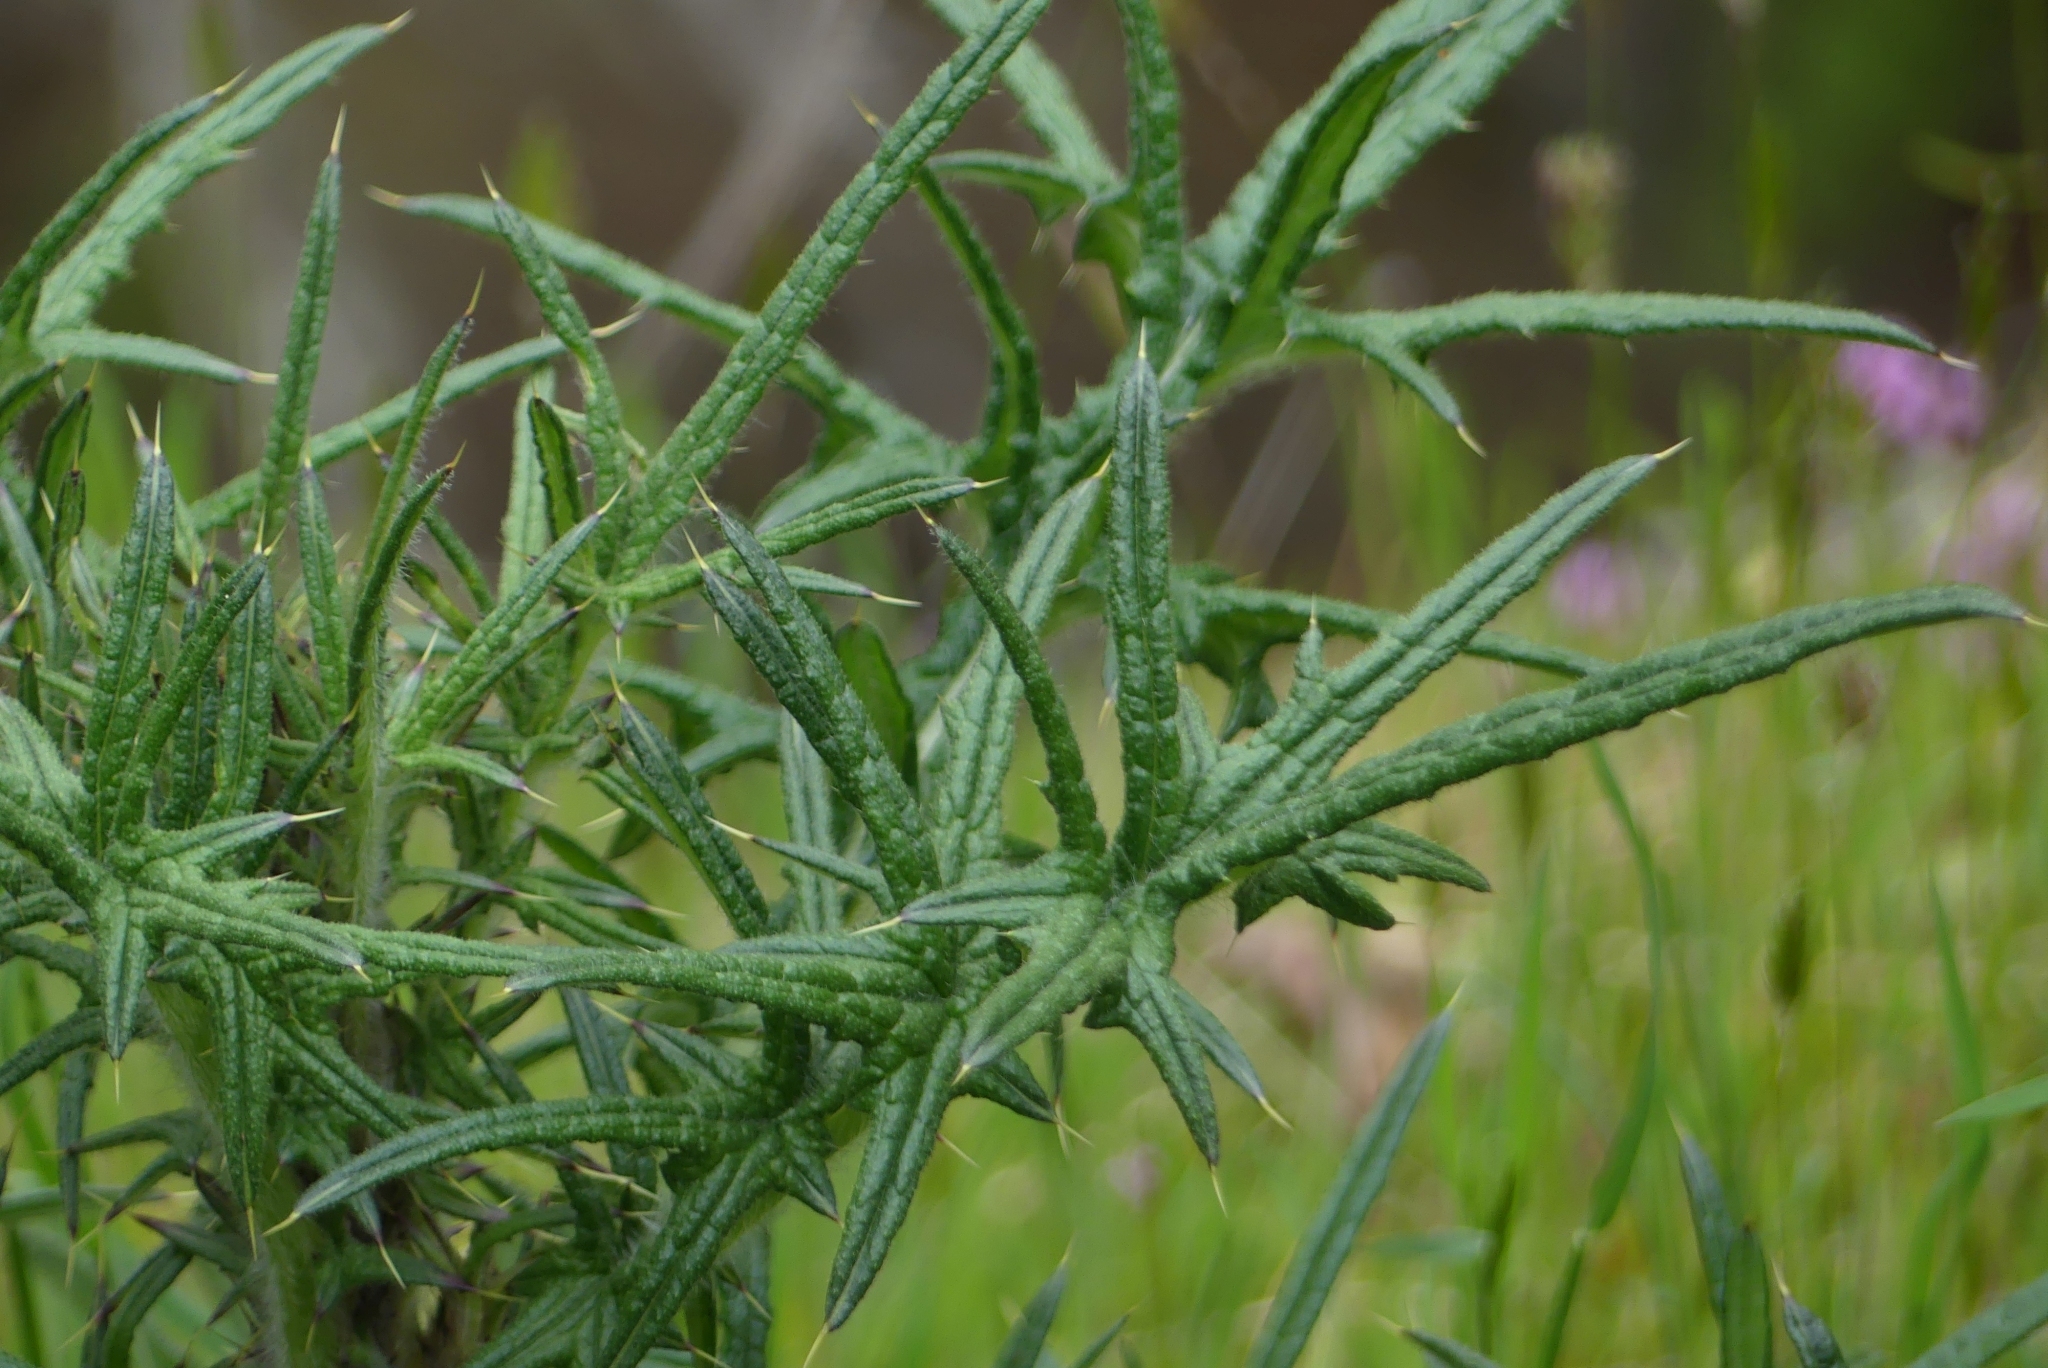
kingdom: Plantae
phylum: Tracheophyta
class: Magnoliopsida
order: Asterales
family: Asteraceae
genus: Cirsium
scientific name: Cirsium vulgare
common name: Bull thistle
